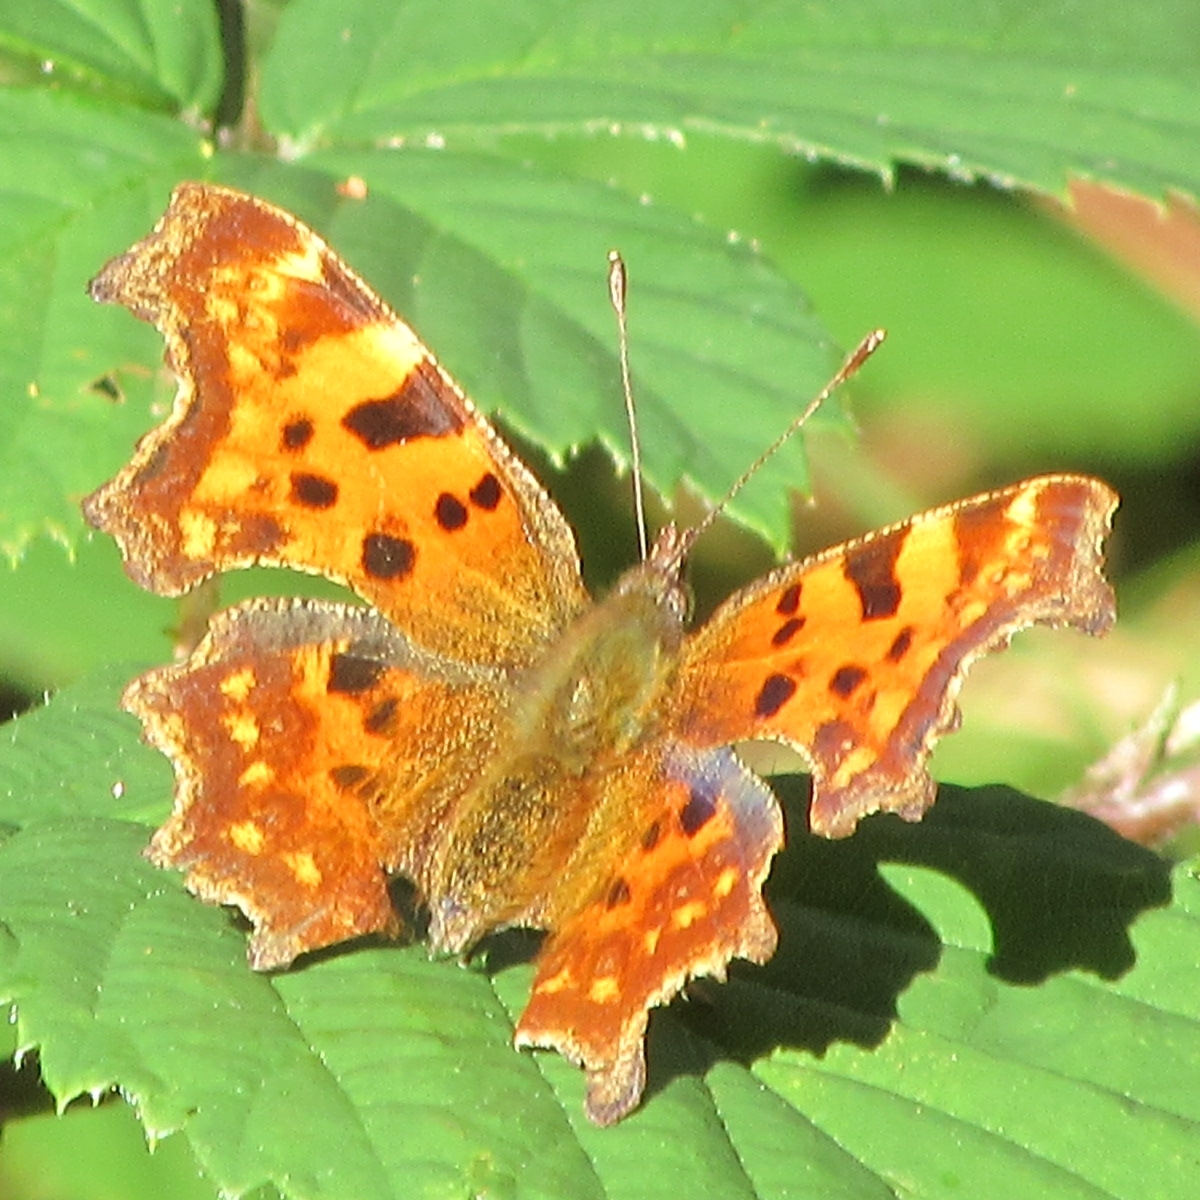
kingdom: Animalia
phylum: Arthropoda
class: Insecta
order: Lepidoptera
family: Nymphalidae
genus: Polygonia
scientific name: Polygonia c-album
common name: Comma
